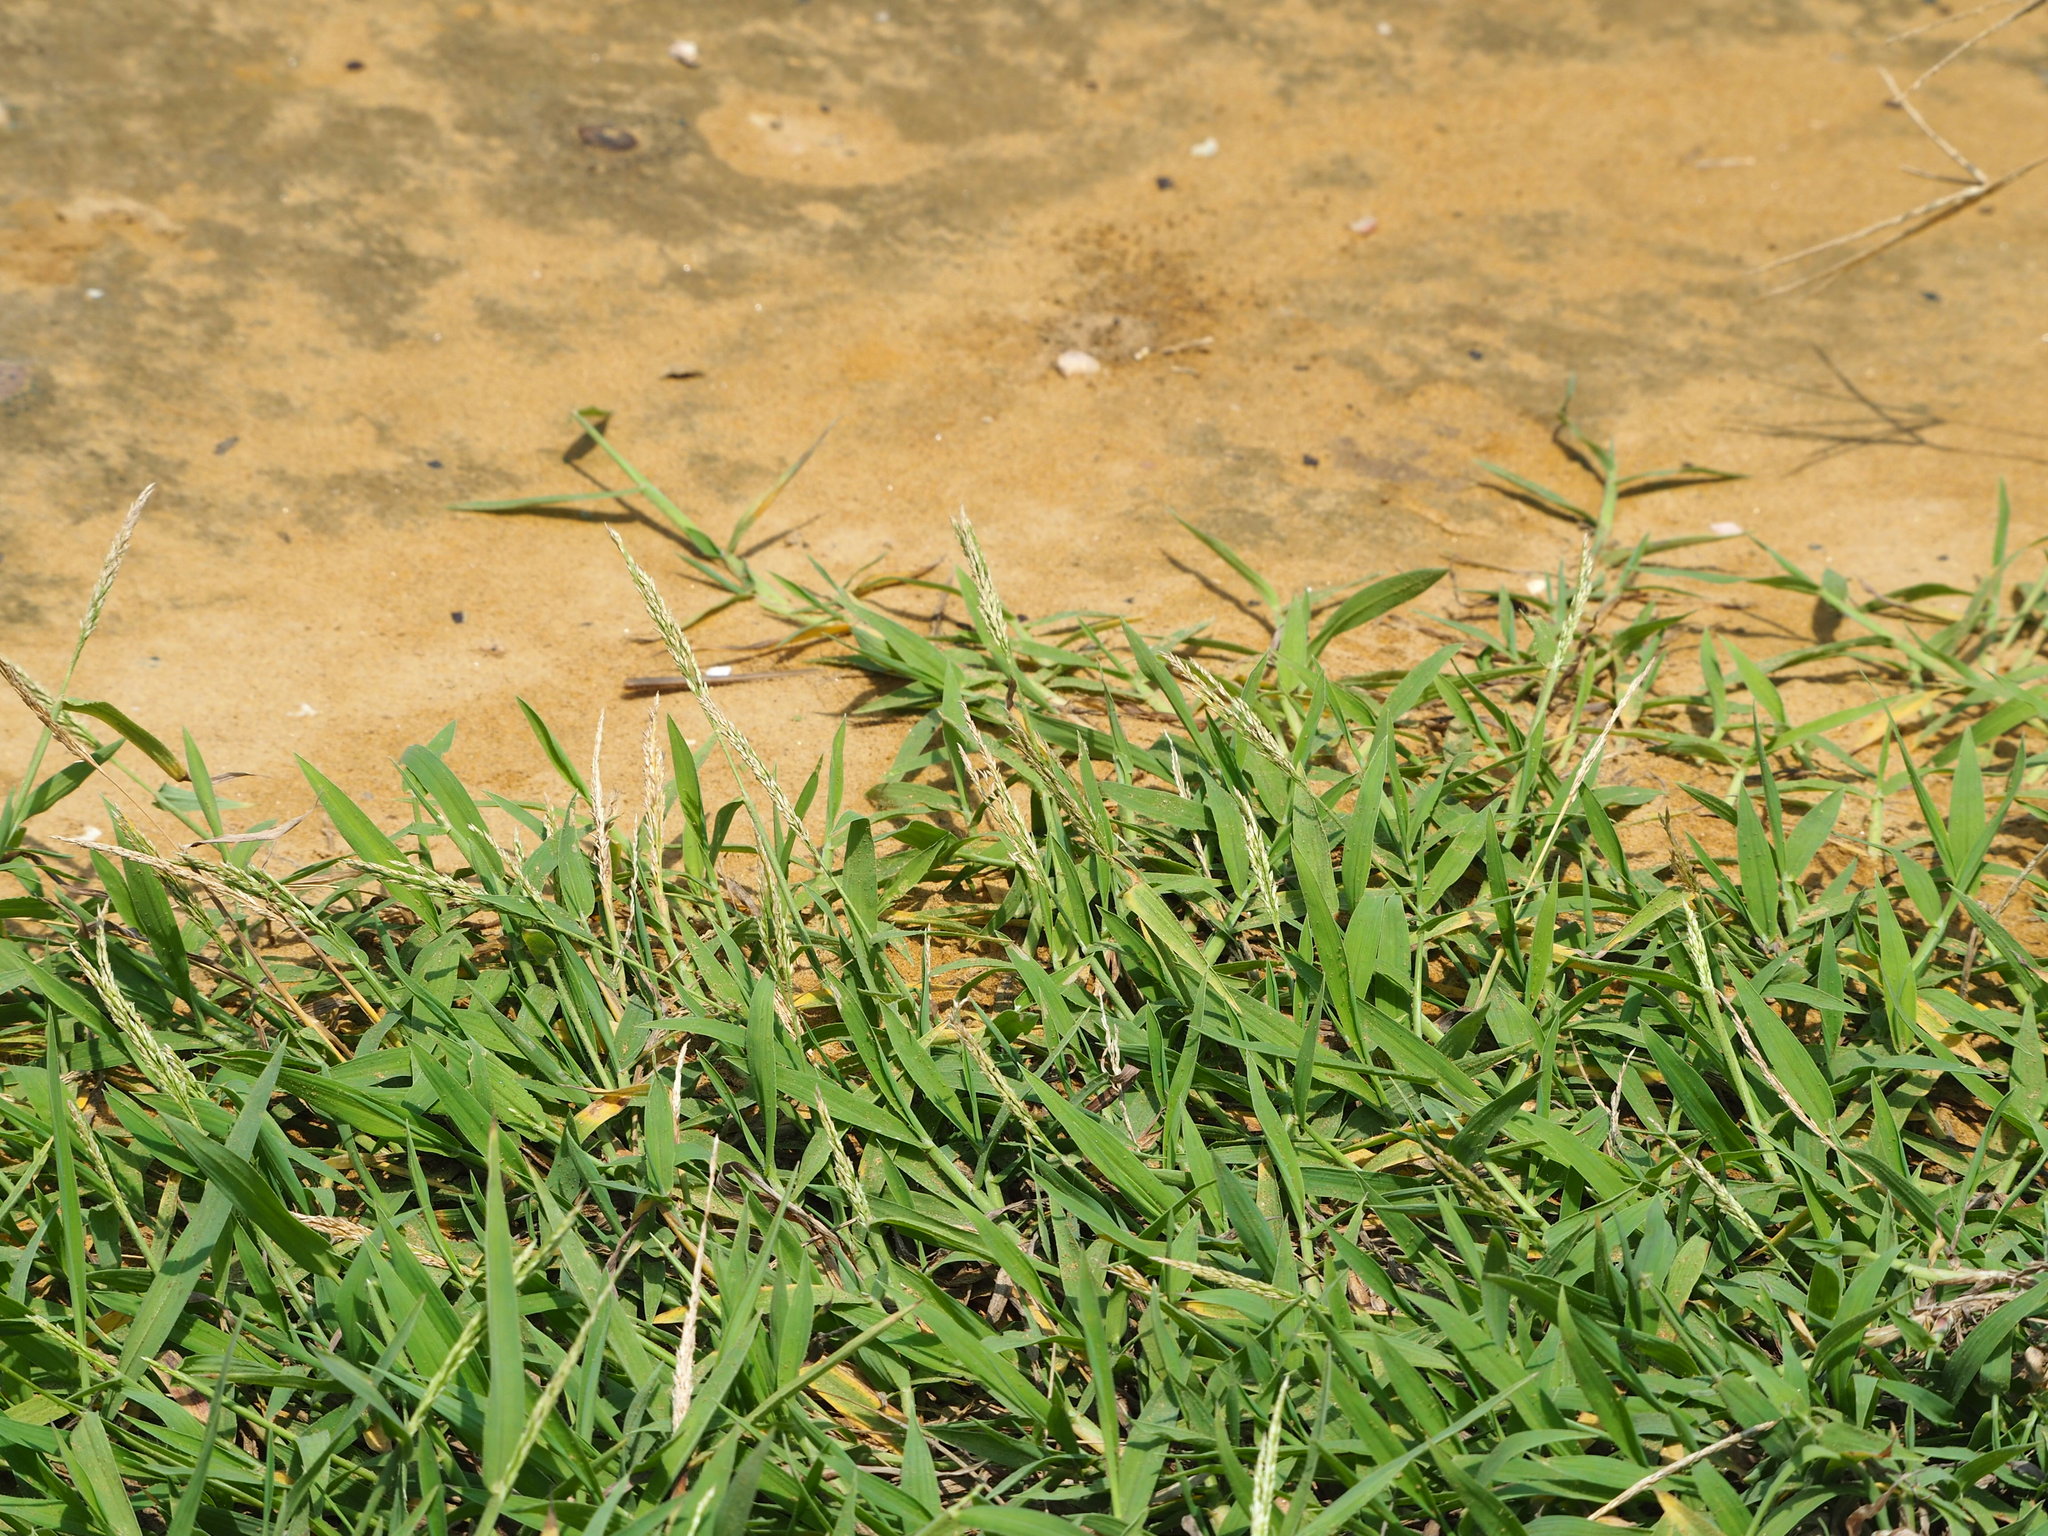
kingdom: Plantae
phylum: Tracheophyta
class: Liliopsida
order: Poales
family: Poaceae
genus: Digitaria
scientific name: Digitaria ciliaris
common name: Tropical finger-grass
